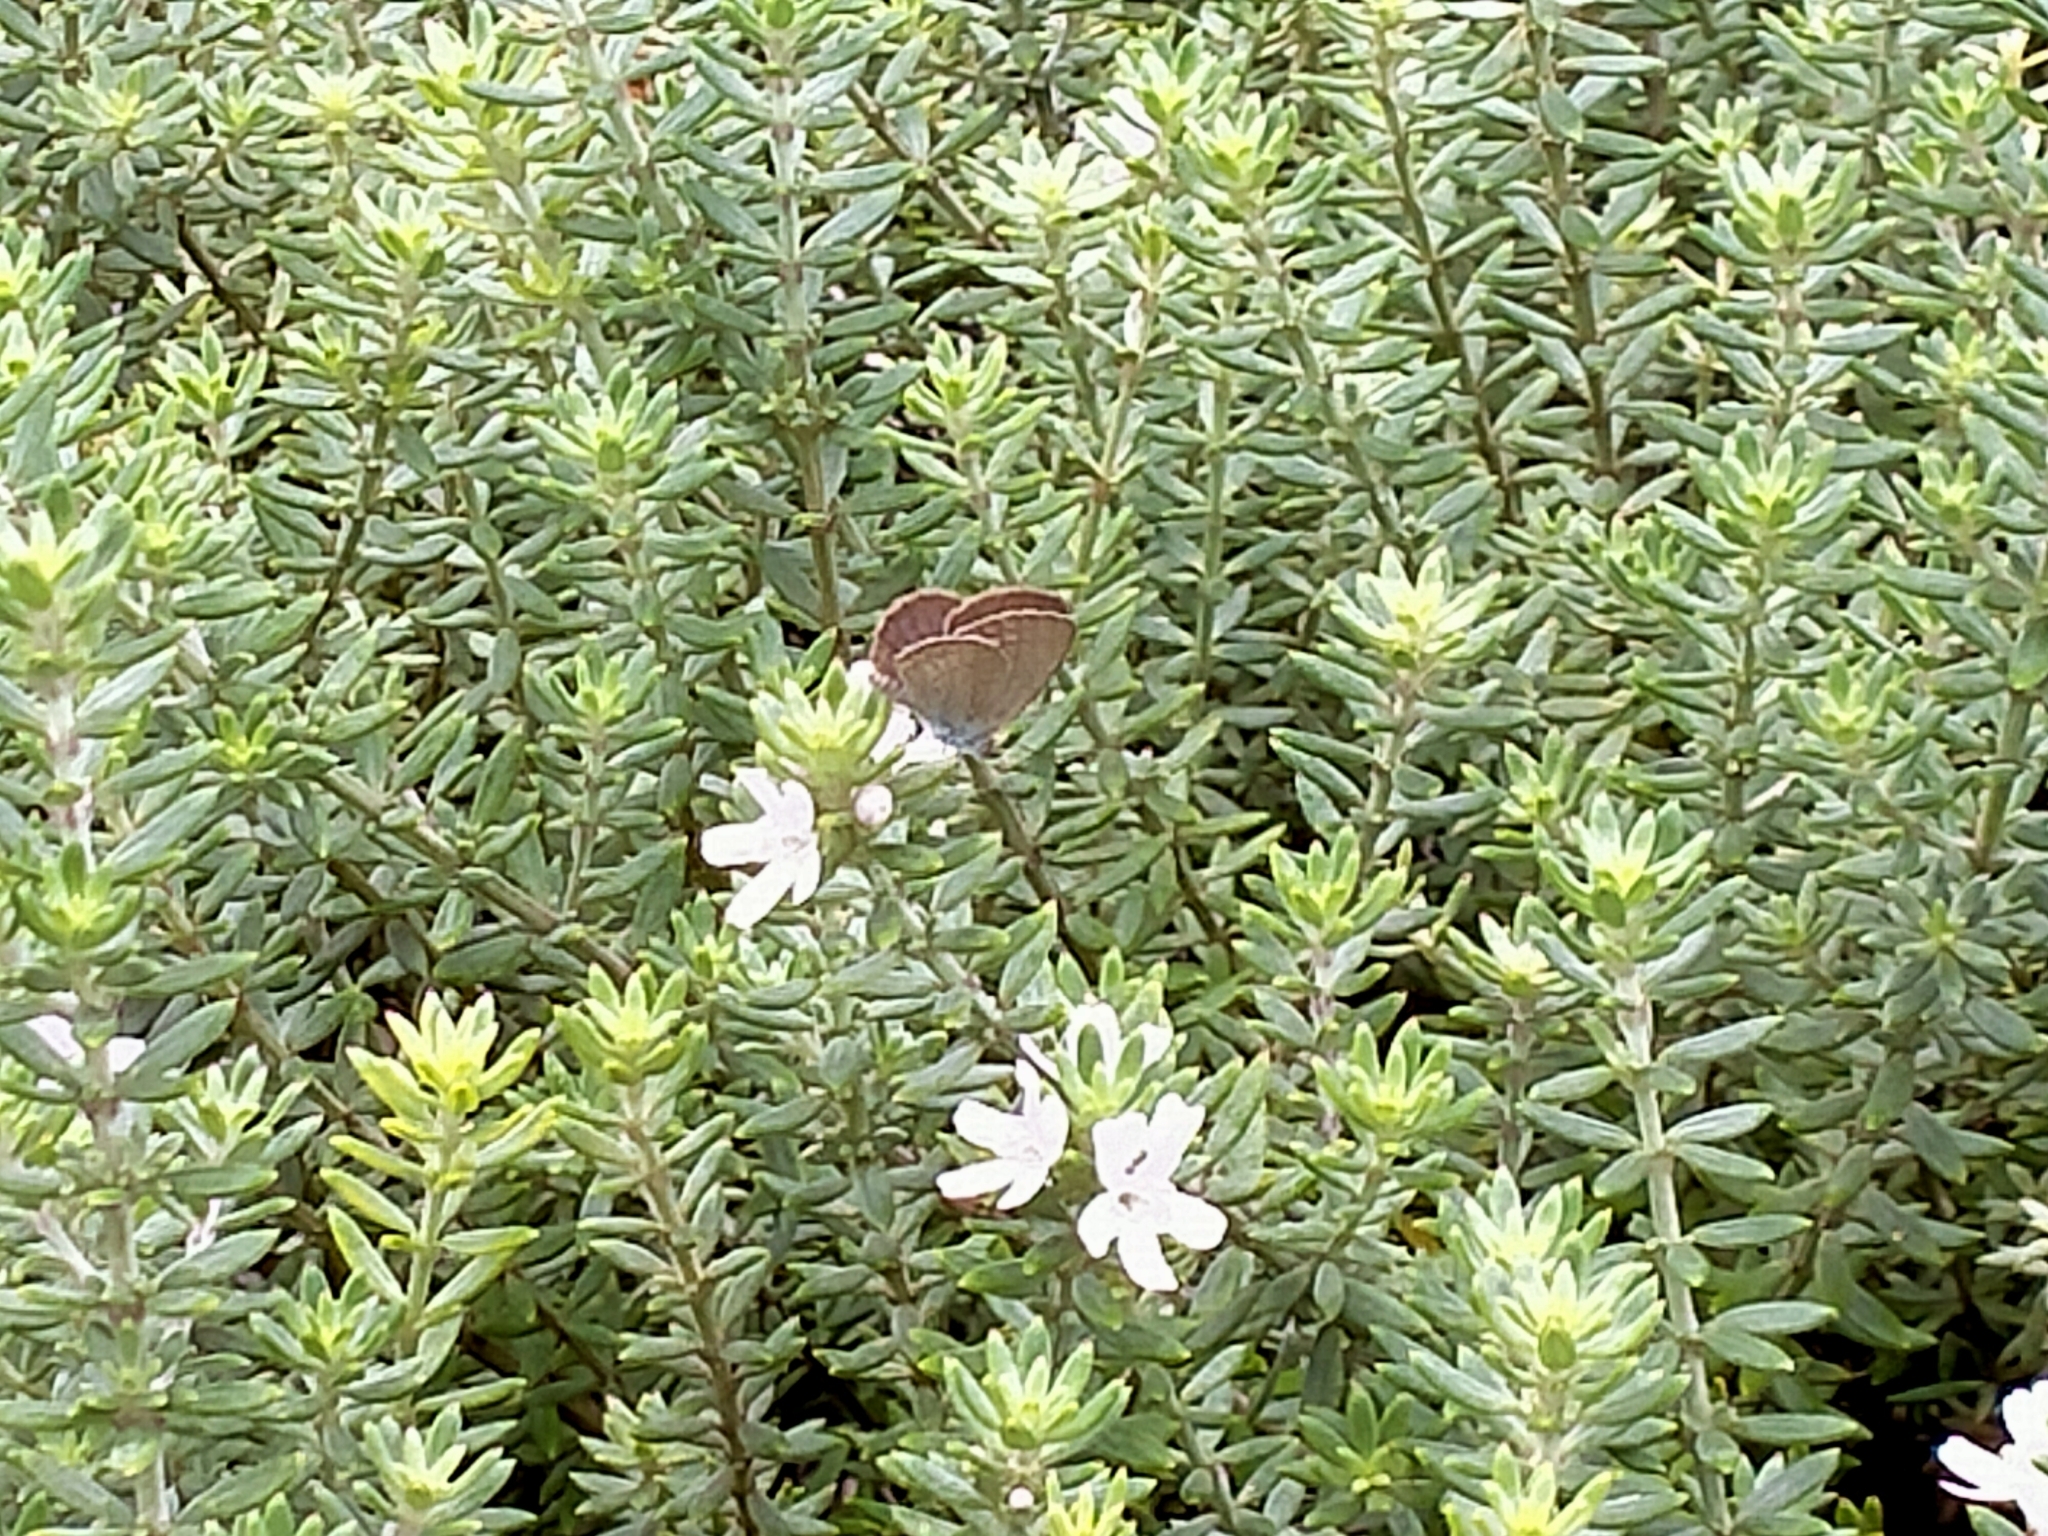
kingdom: Animalia
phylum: Arthropoda
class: Insecta
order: Lepidoptera
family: Lycaenidae
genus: Zizina
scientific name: Zizina labradus
